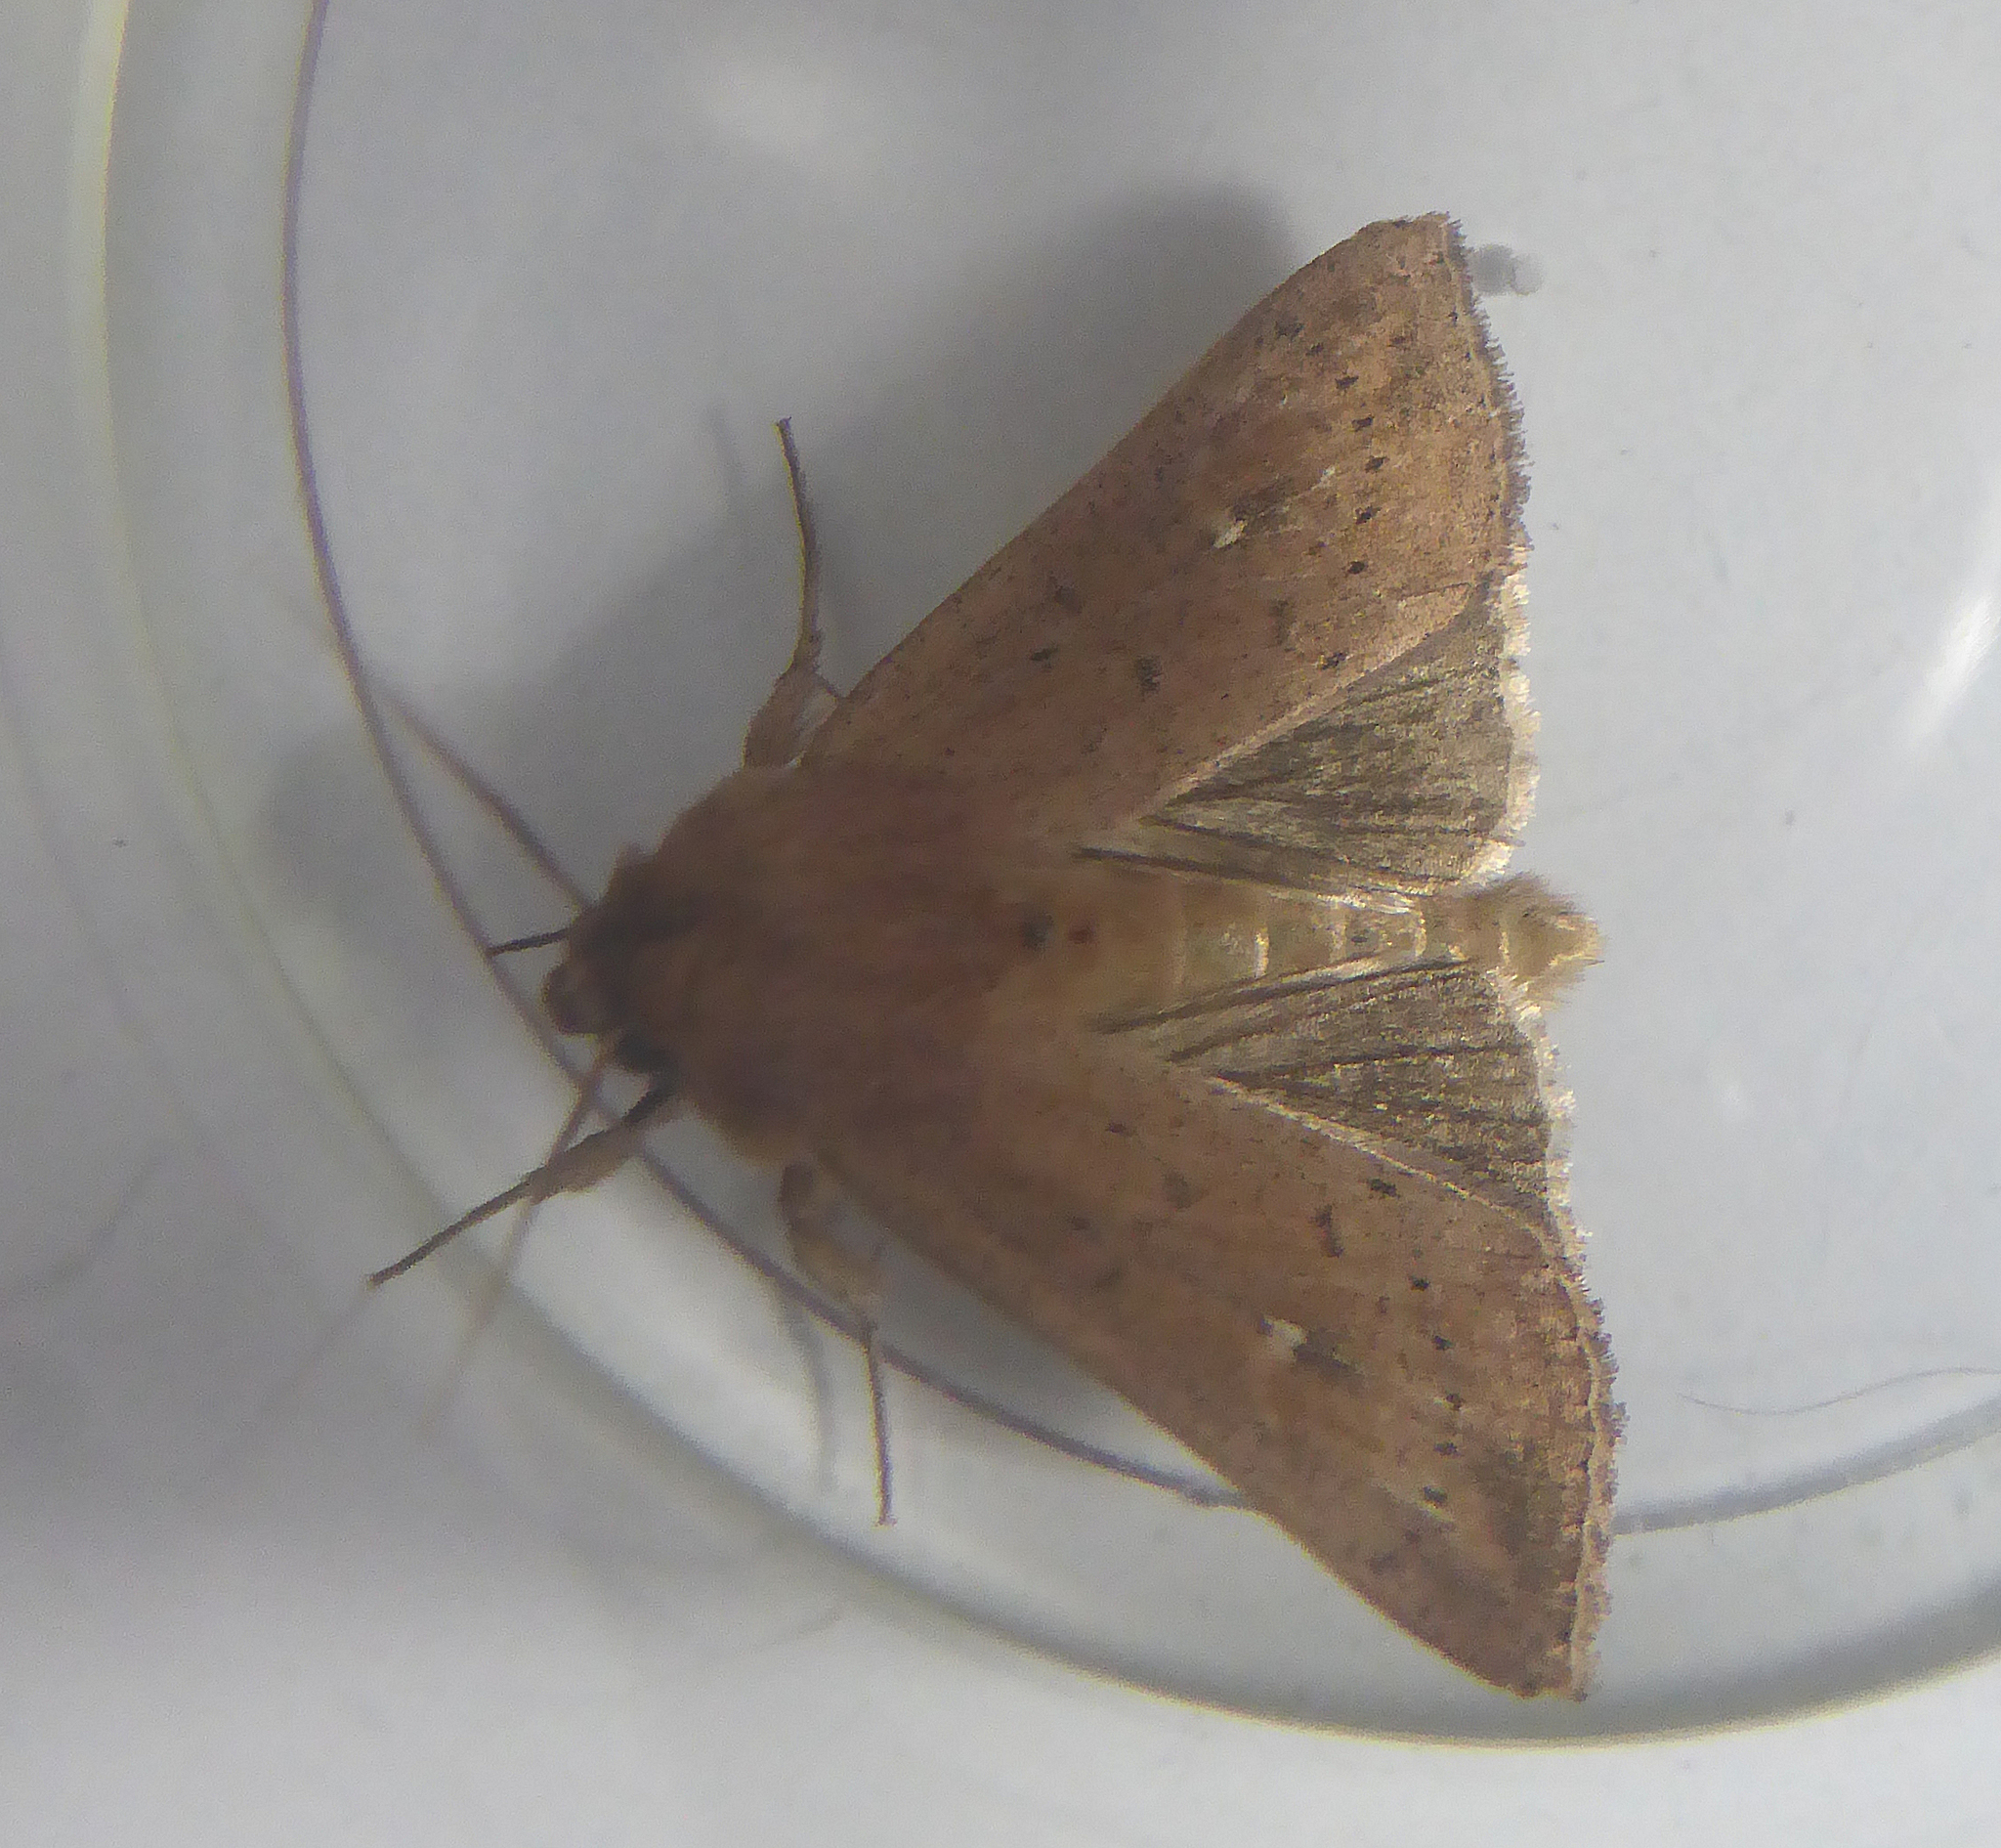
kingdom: Animalia
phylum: Arthropoda
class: Insecta
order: Lepidoptera
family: Noctuidae
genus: Mythimna
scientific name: Mythimna ferrago
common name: Clay
